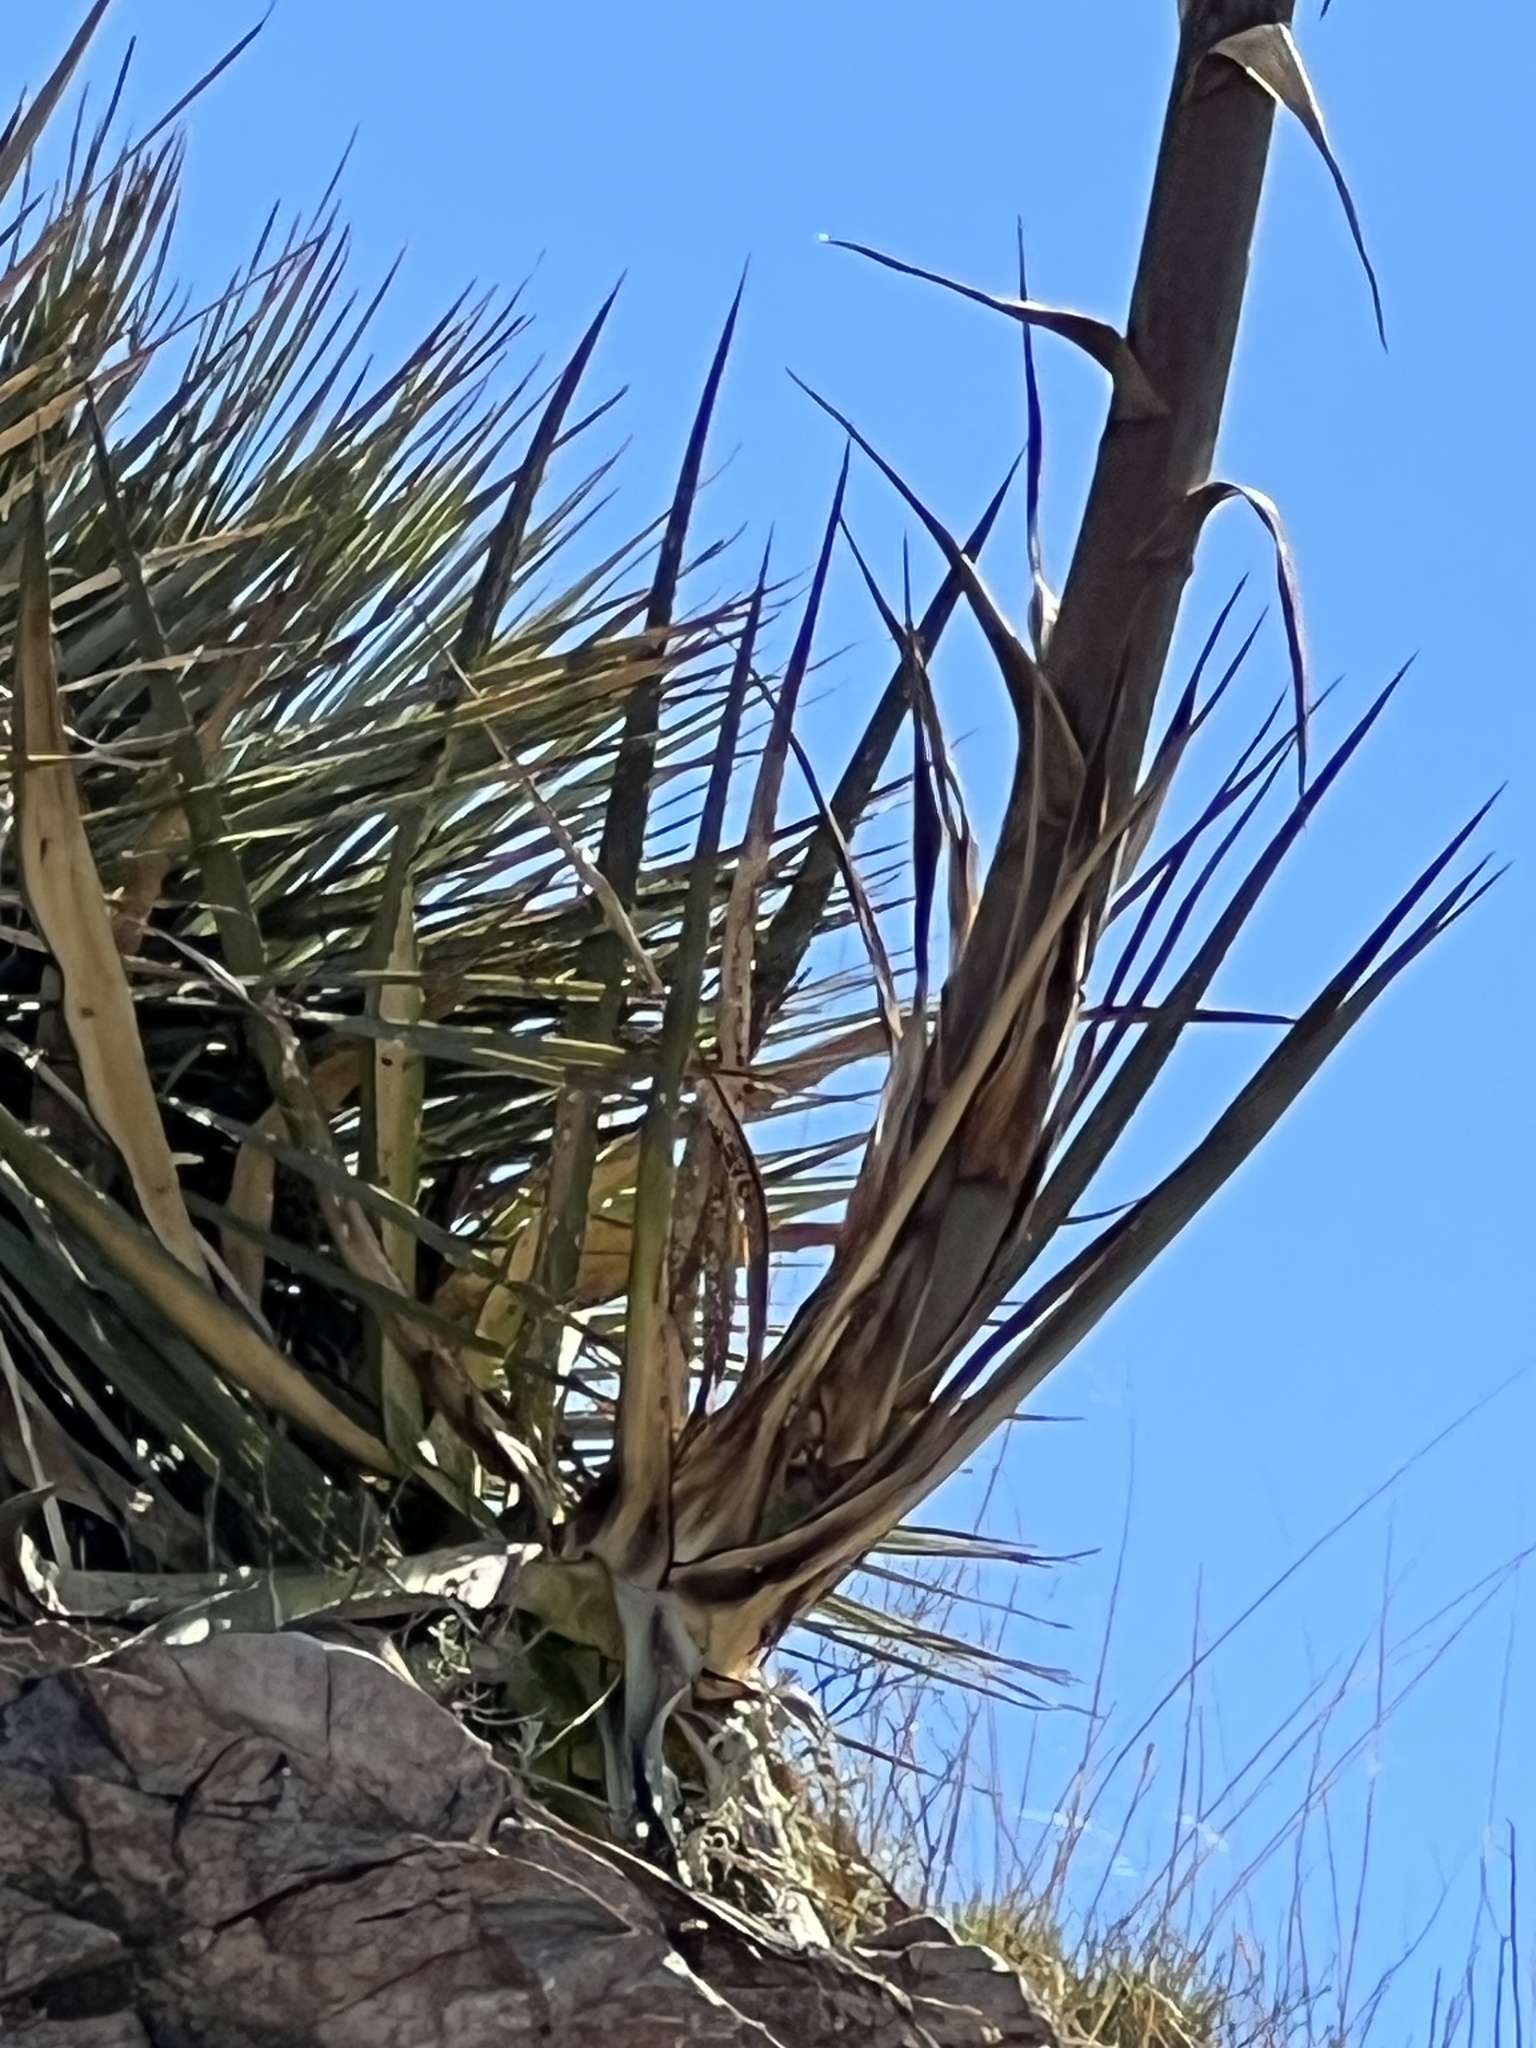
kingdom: Plantae
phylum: Tracheophyta
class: Liliopsida
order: Asparagales
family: Asparagaceae
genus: Agave
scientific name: Agave palmeri
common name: Palmer agave
